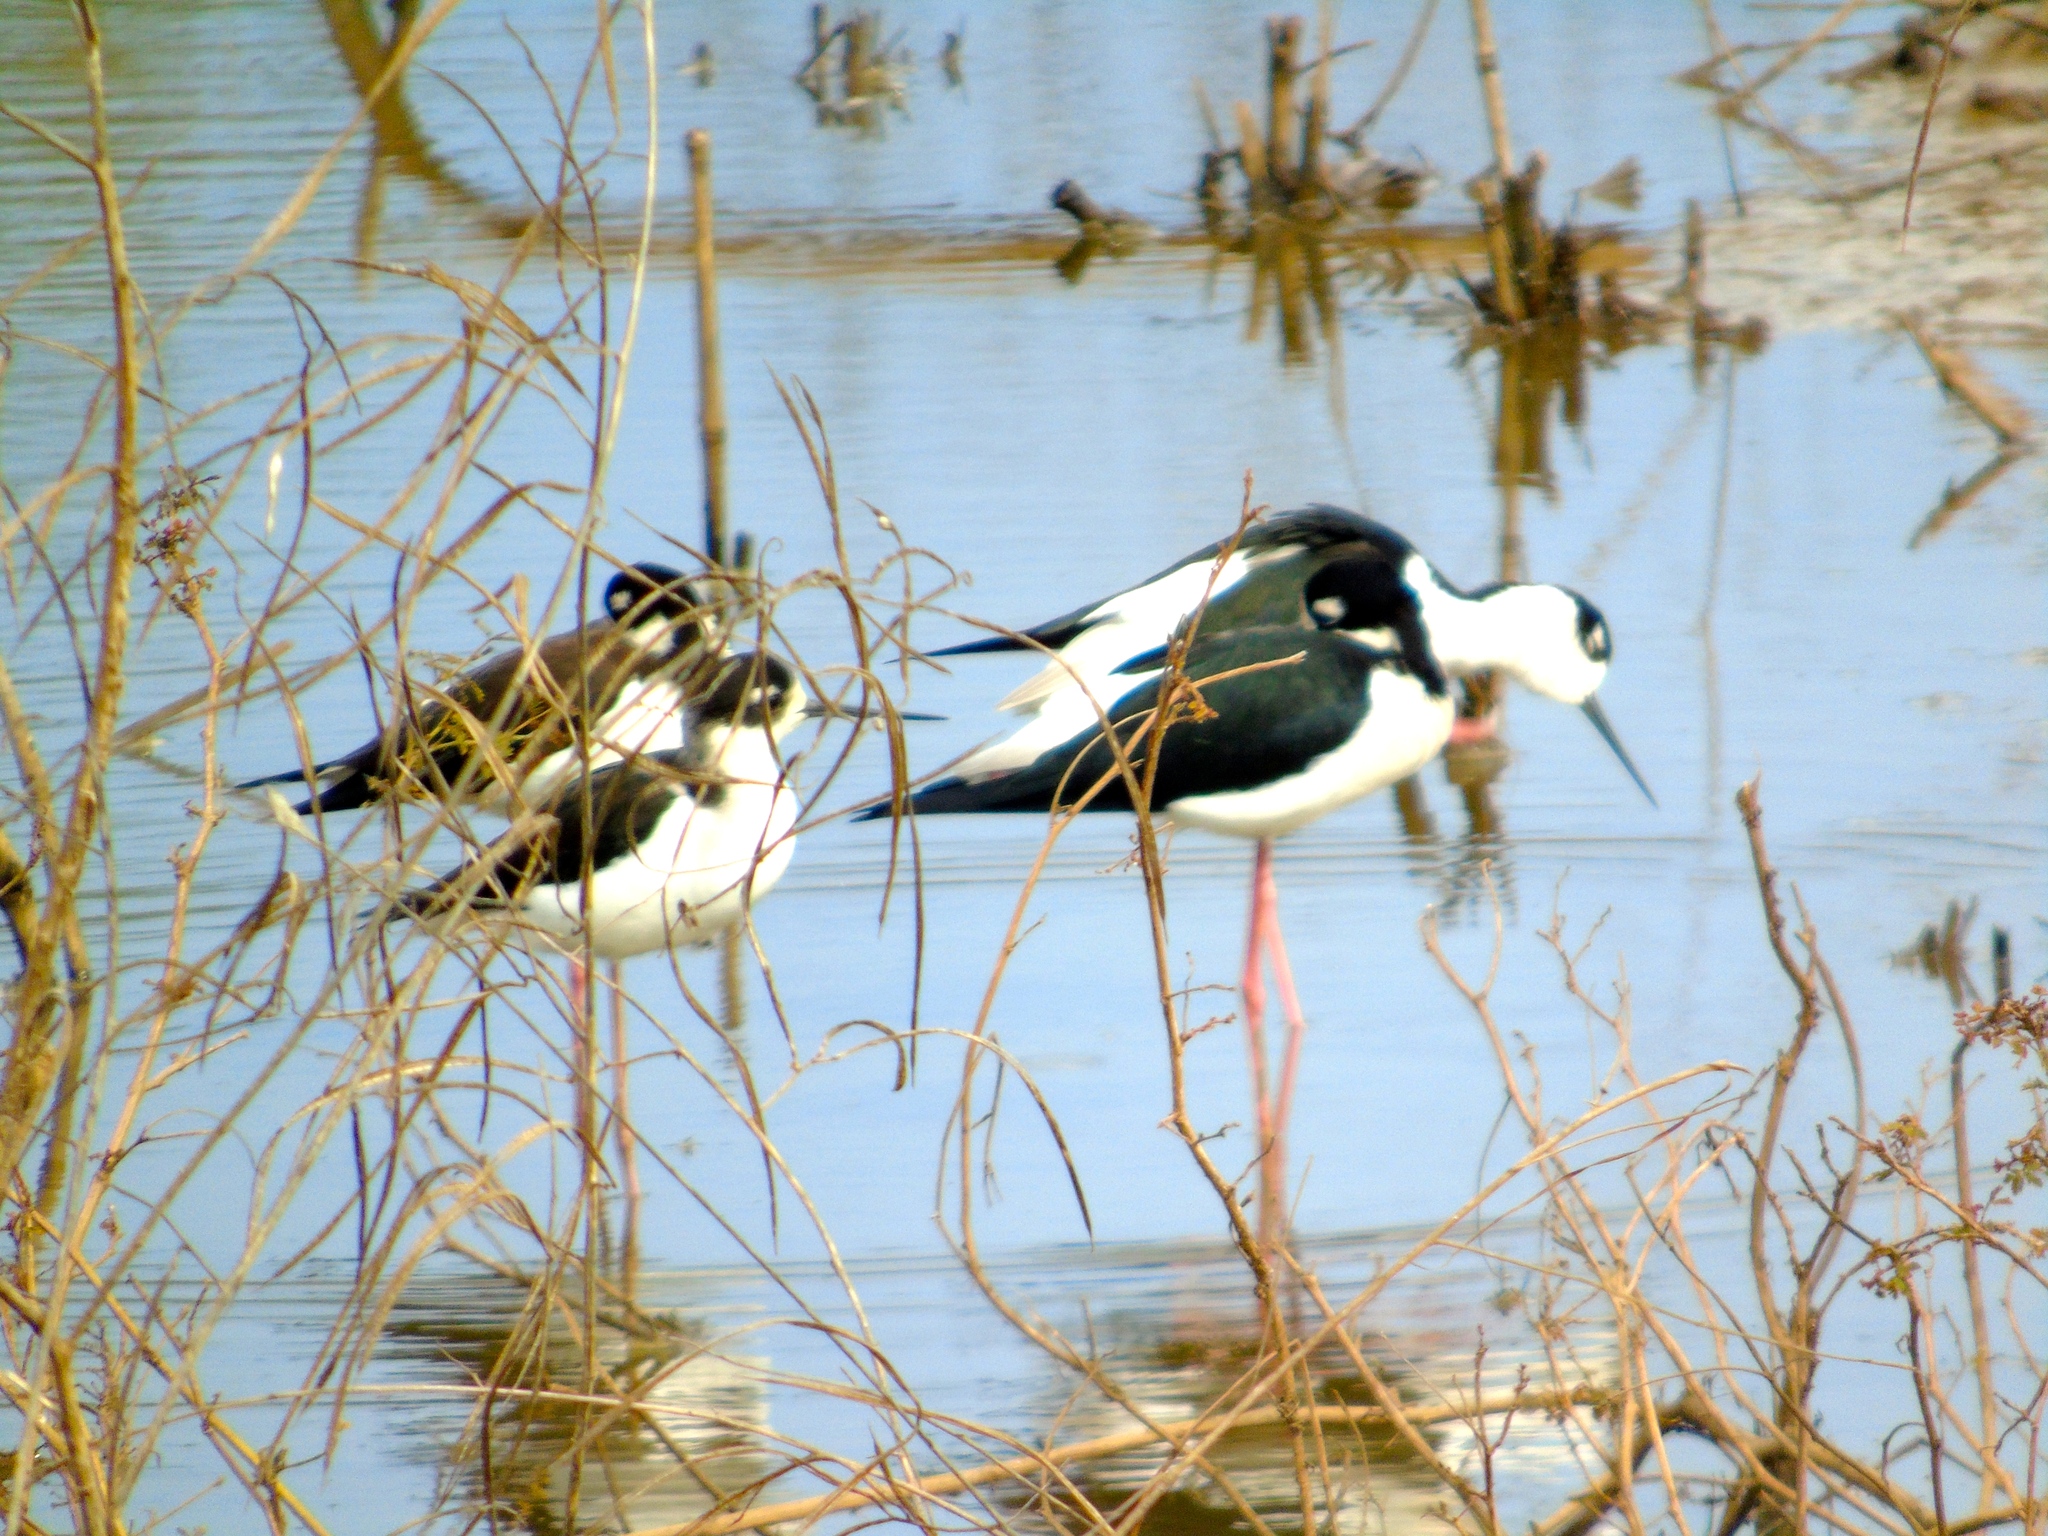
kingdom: Animalia
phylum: Chordata
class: Aves
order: Charadriiformes
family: Recurvirostridae
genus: Himantopus
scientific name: Himantopus mexicanus
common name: Black-necked stilt
